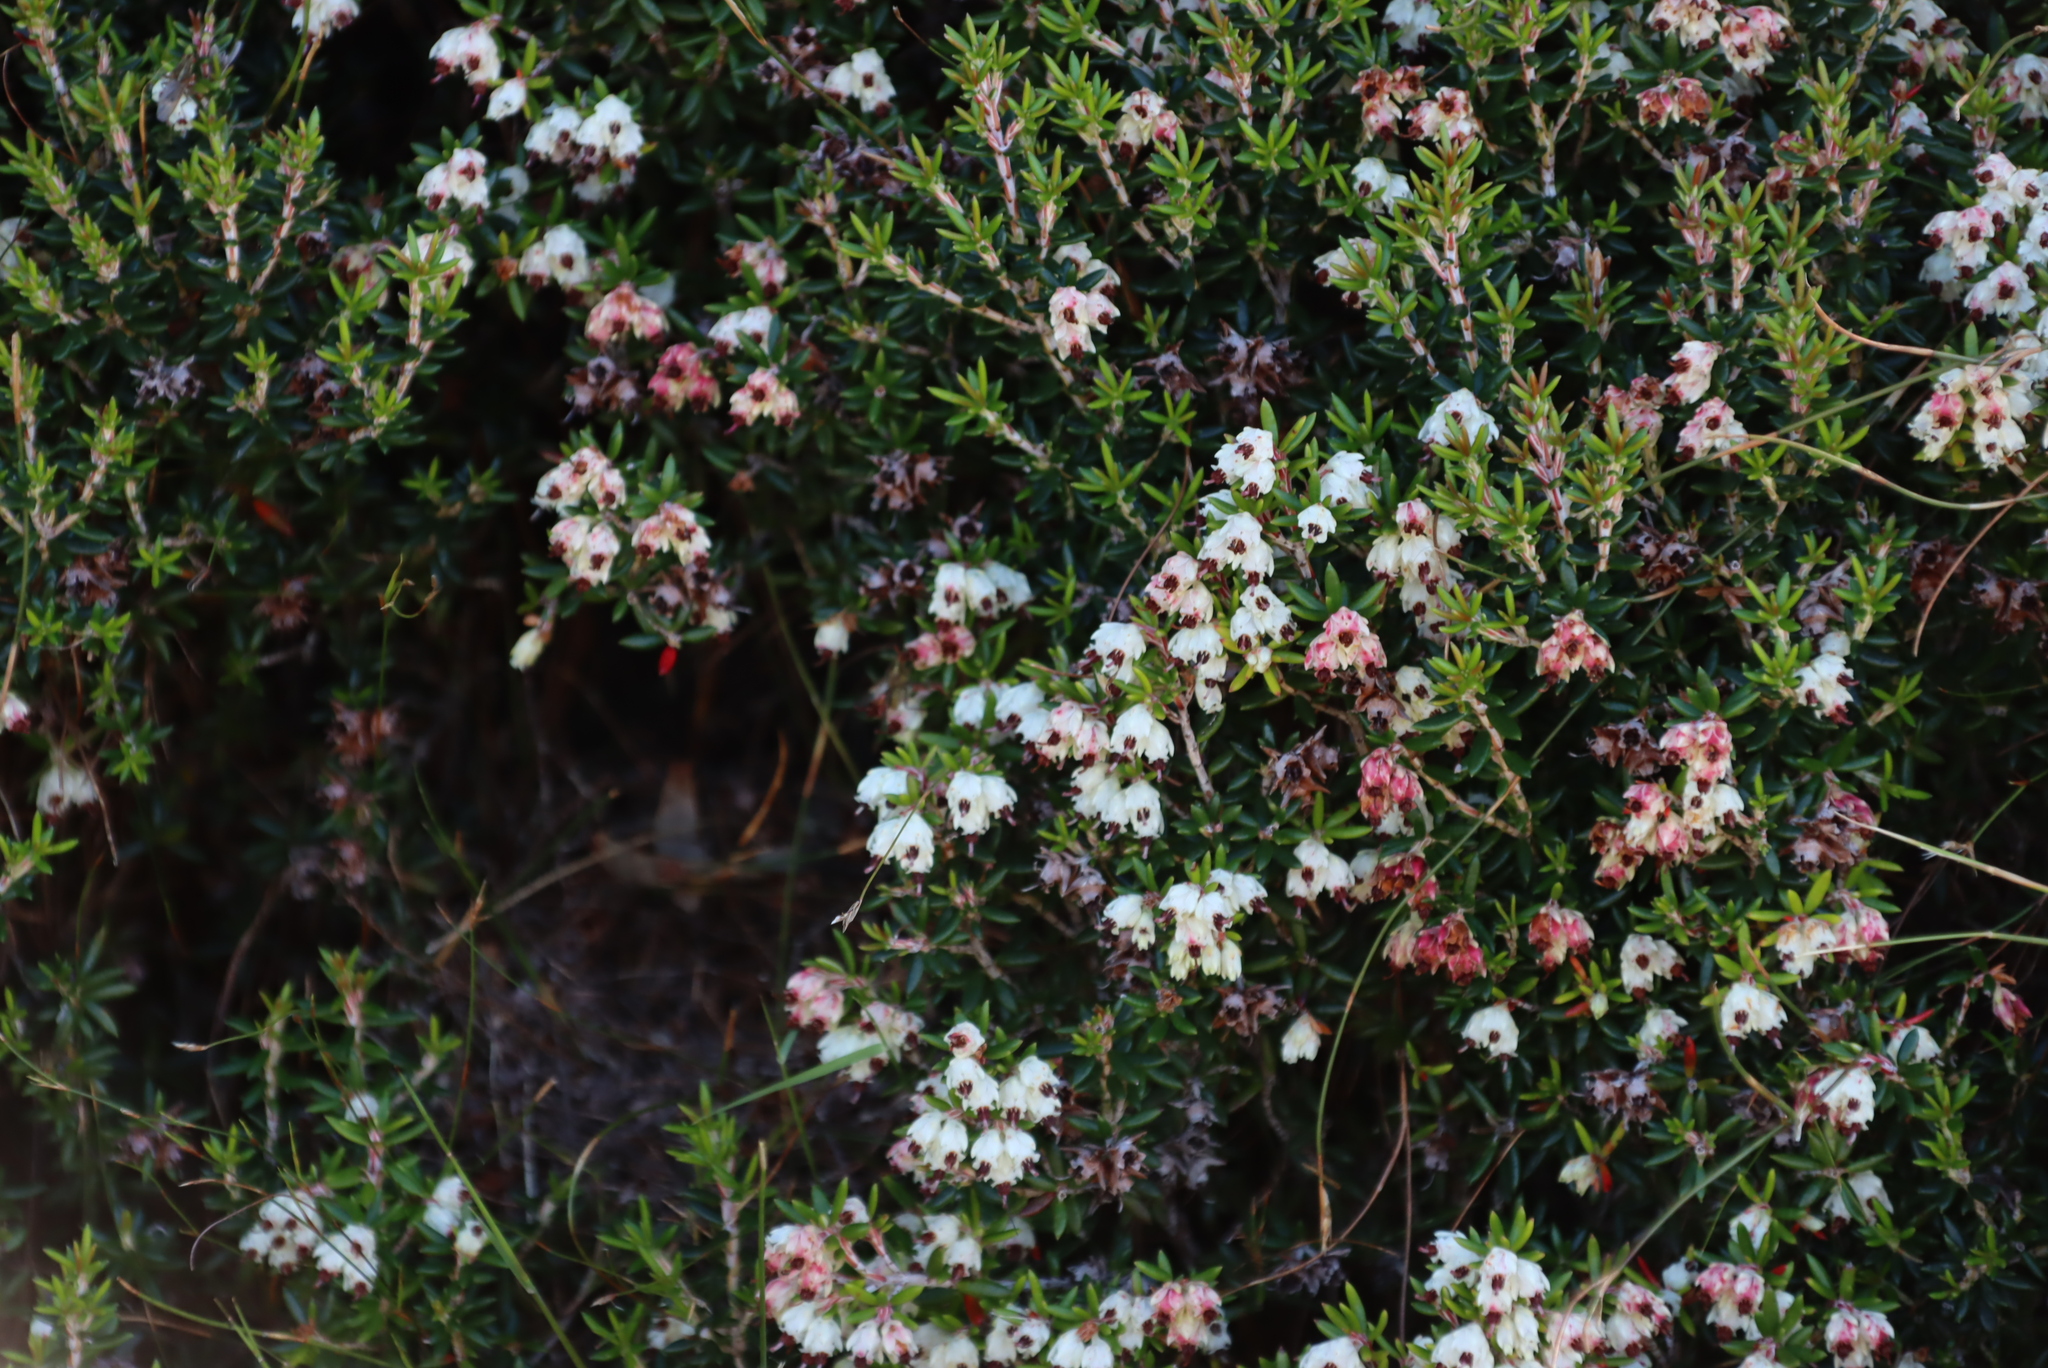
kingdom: Plantae
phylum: Tracheophyta
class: Magnoliopsida
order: Ericales
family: Ericaceae
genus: Erica
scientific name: Erica petiolaris
